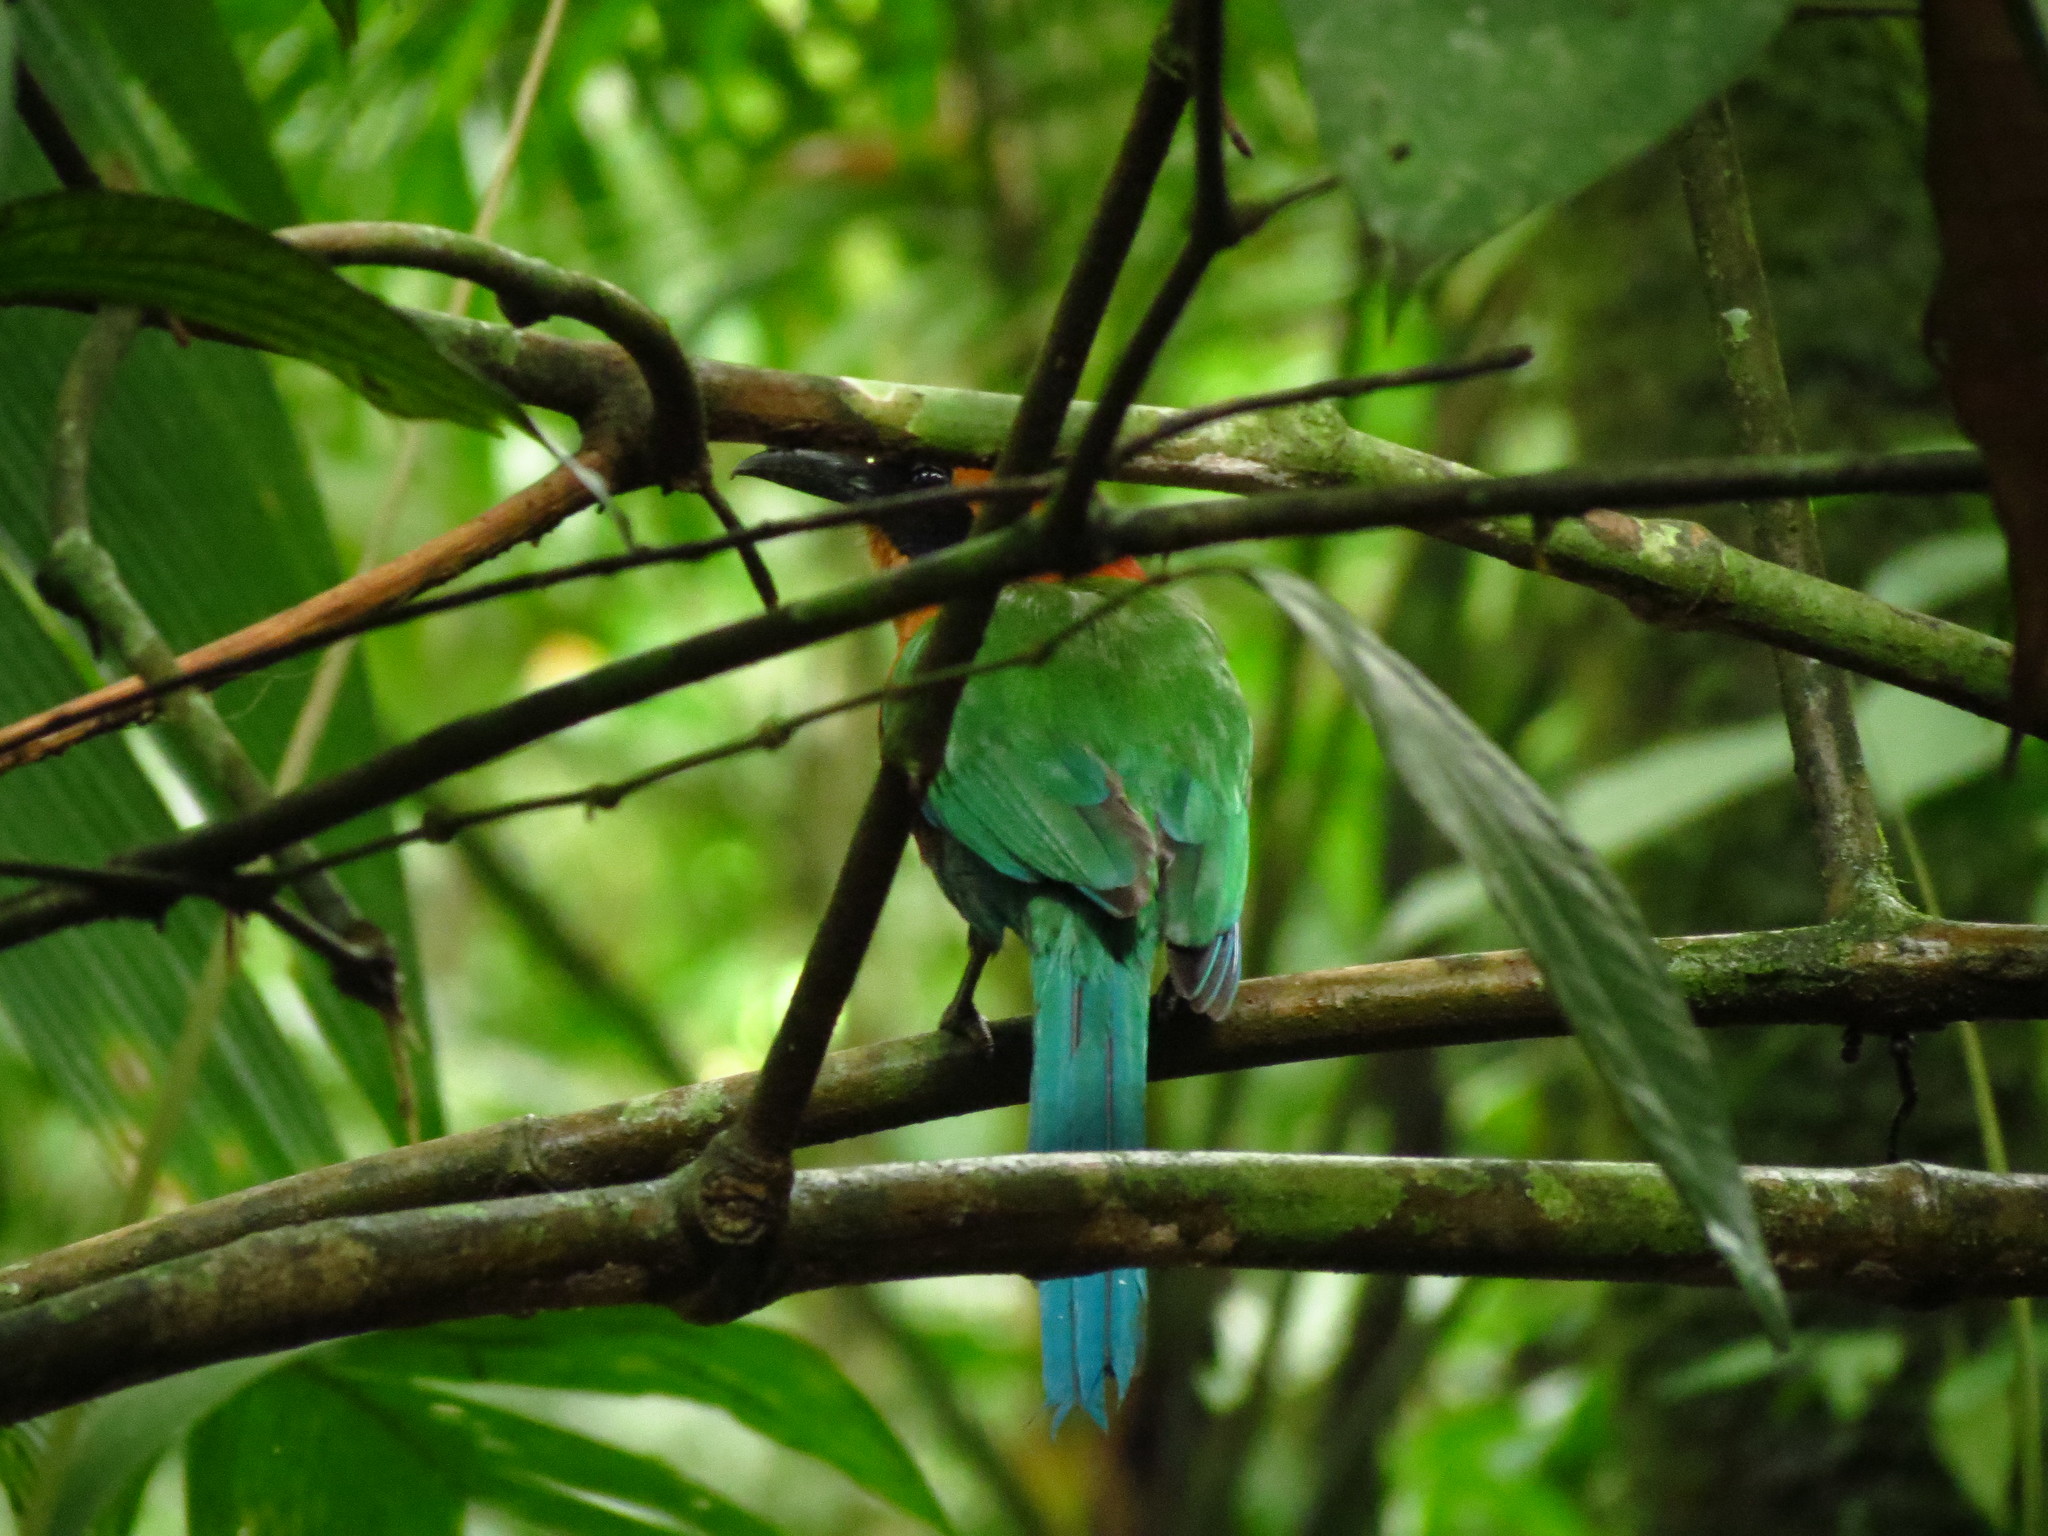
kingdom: Animalia
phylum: Chordata
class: Aves
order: Coraciiformes
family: Momotidae
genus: Baryphthengus
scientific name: Baryphthengus martii
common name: Rufous motmot
